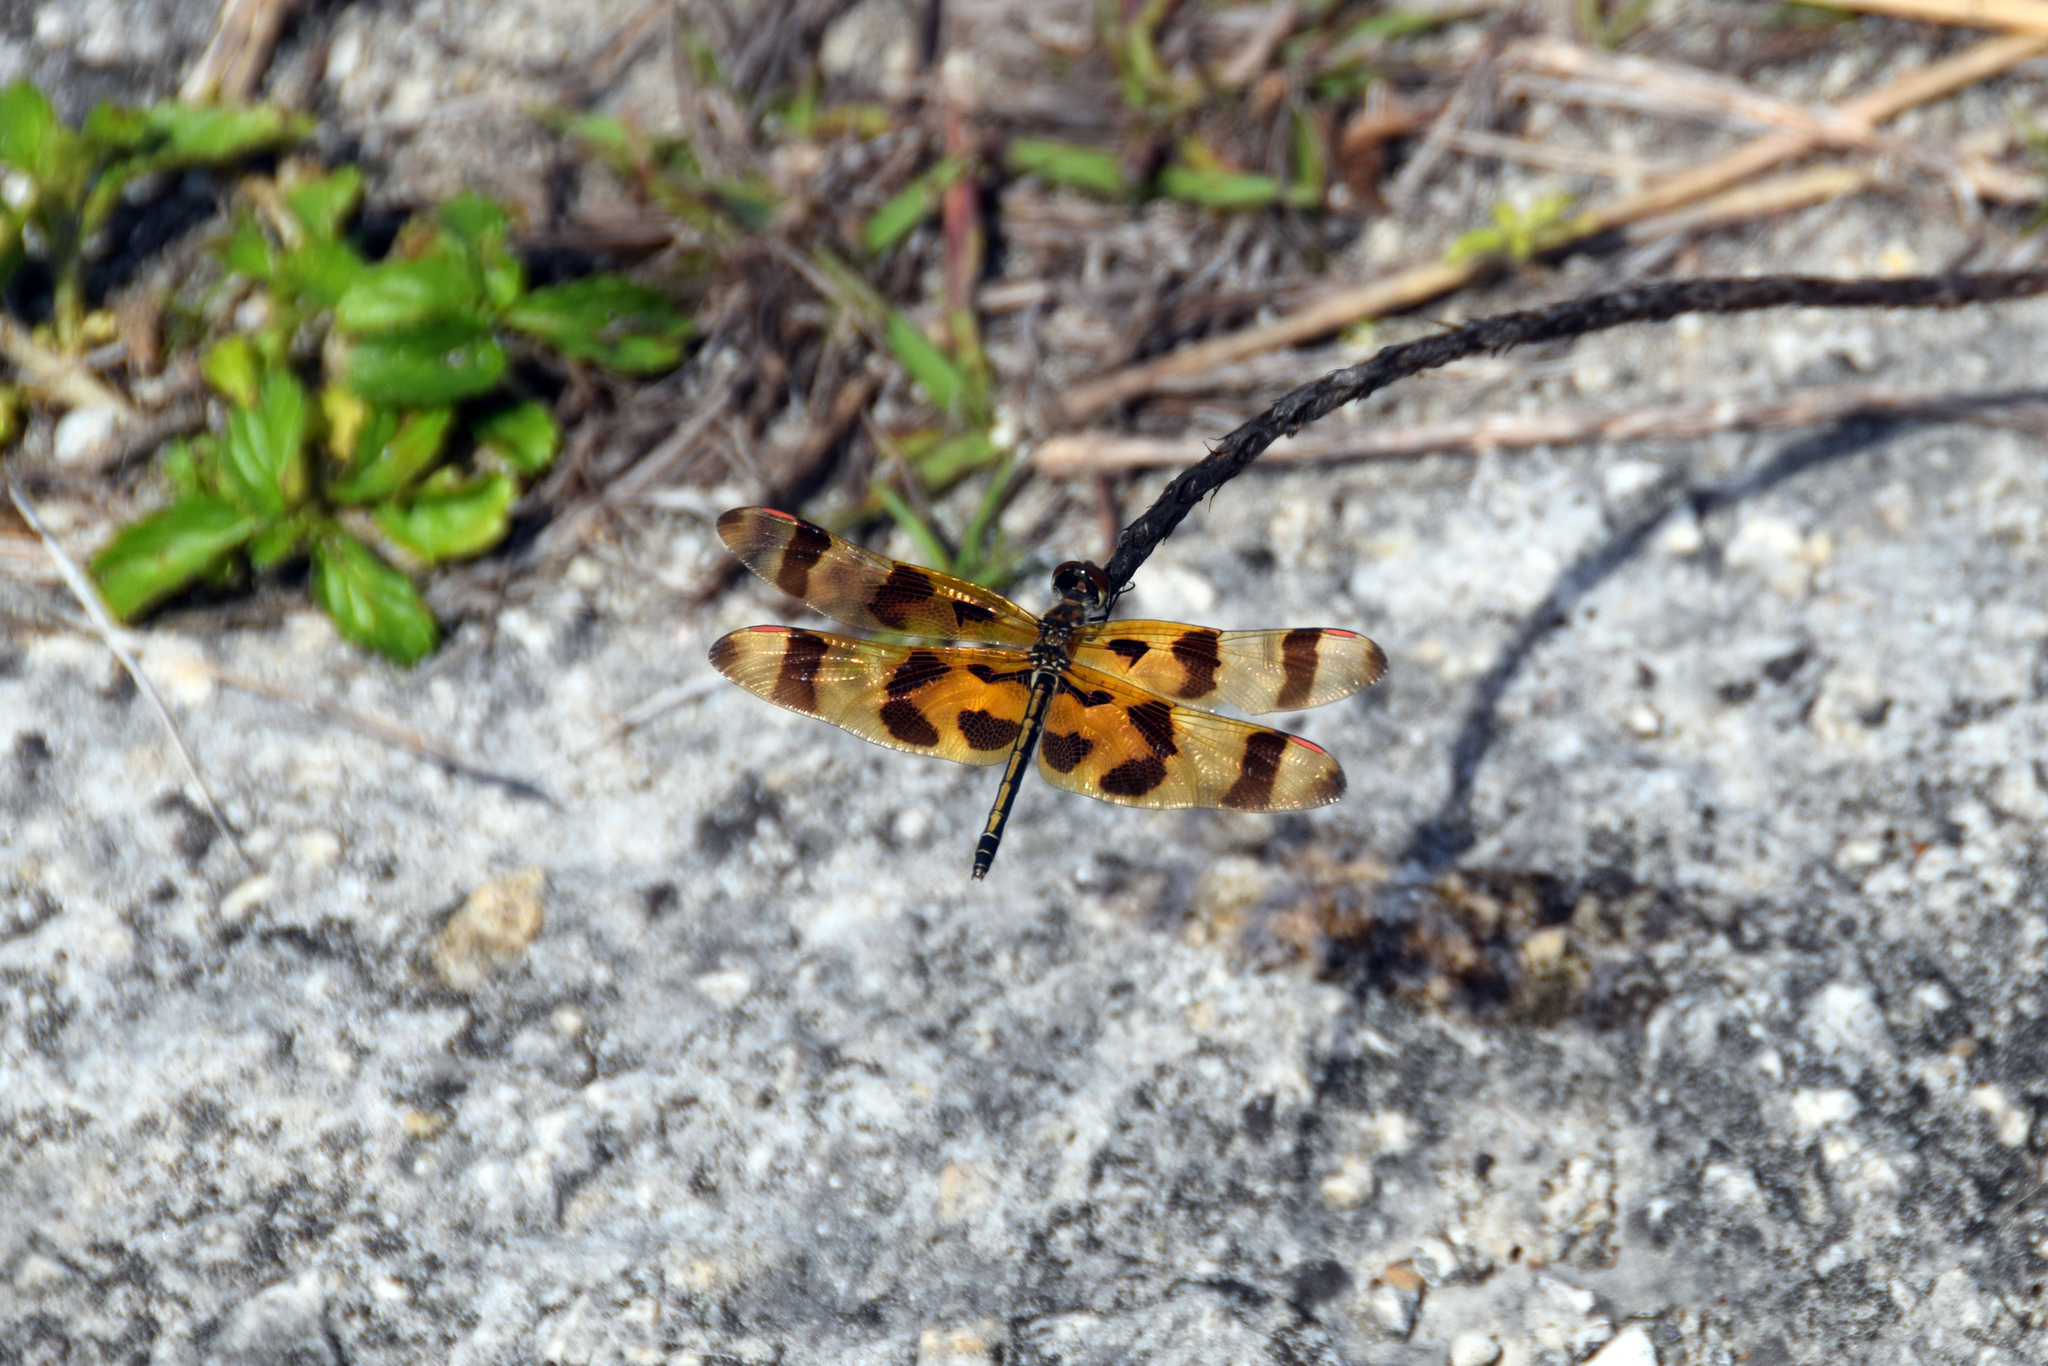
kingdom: Animalia
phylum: Arthropoda
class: Insecta
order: Odonata
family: Libellulidae
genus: Celithemis
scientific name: Celithemis eponina
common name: Halloween pennant
